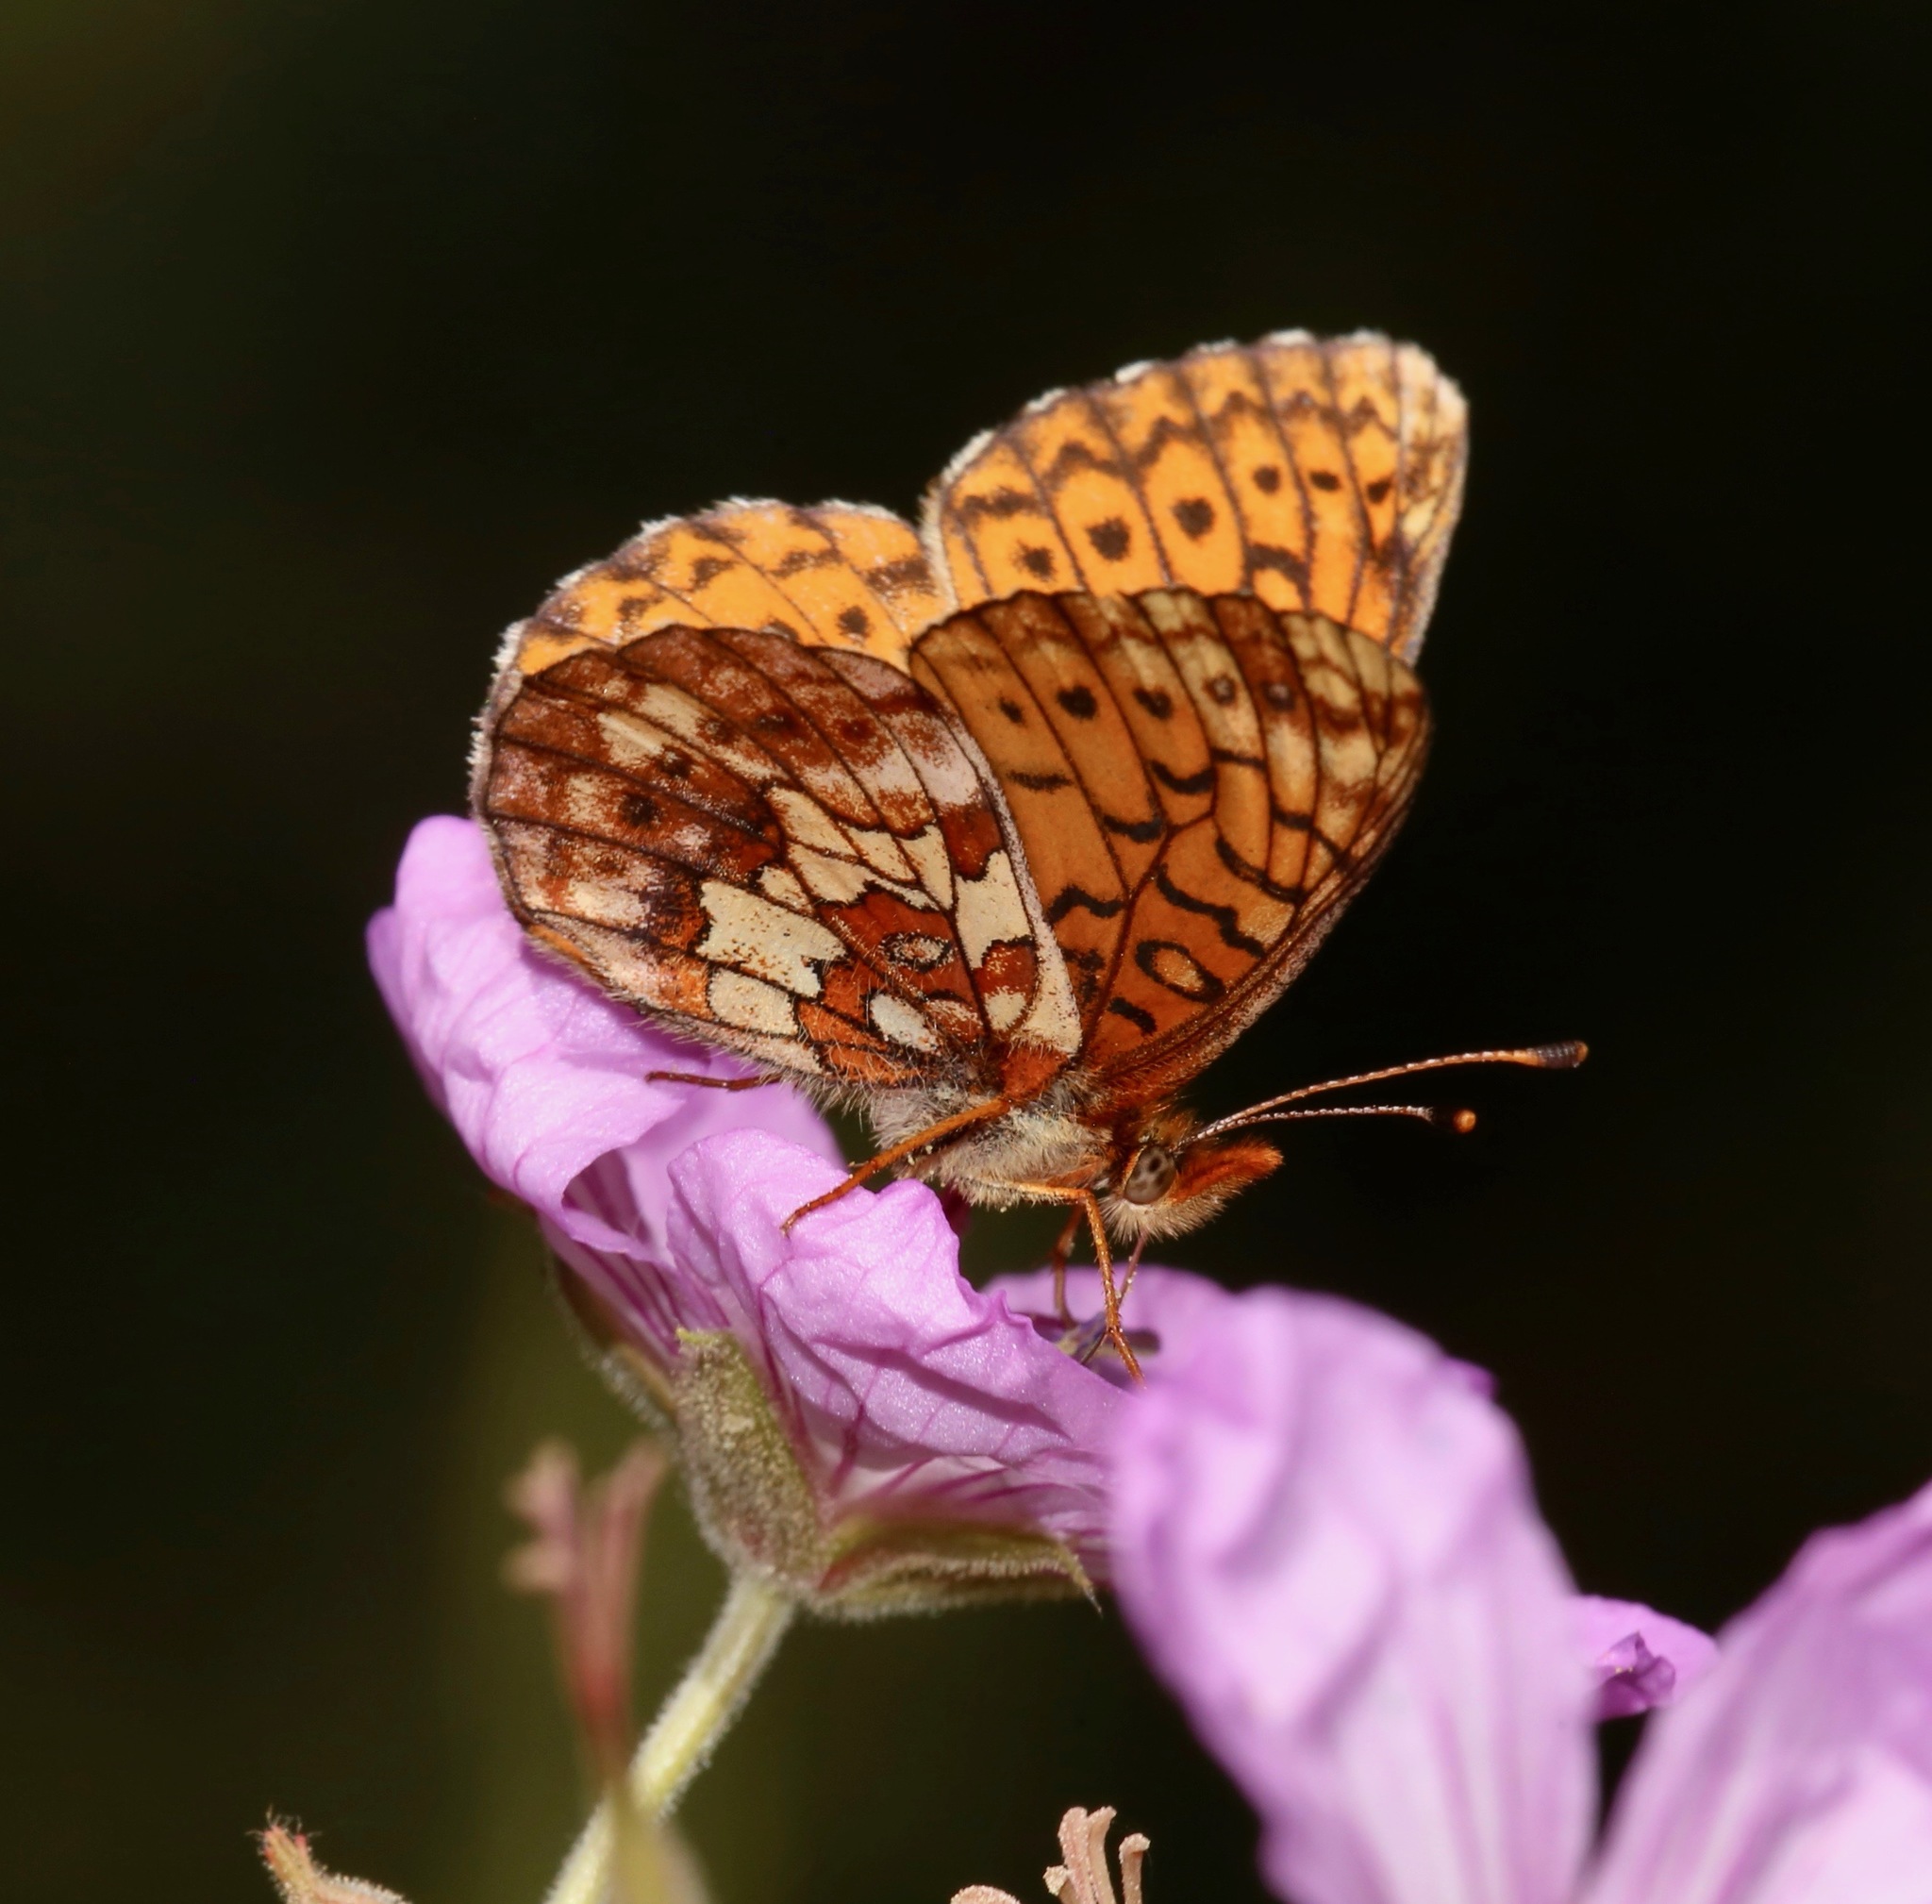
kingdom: Animalia
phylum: Arthropoda
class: Insecta
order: Lepidoptera
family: Nymphalidae
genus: Boloria
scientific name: Boloria kriemhild
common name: Relict fritillary
